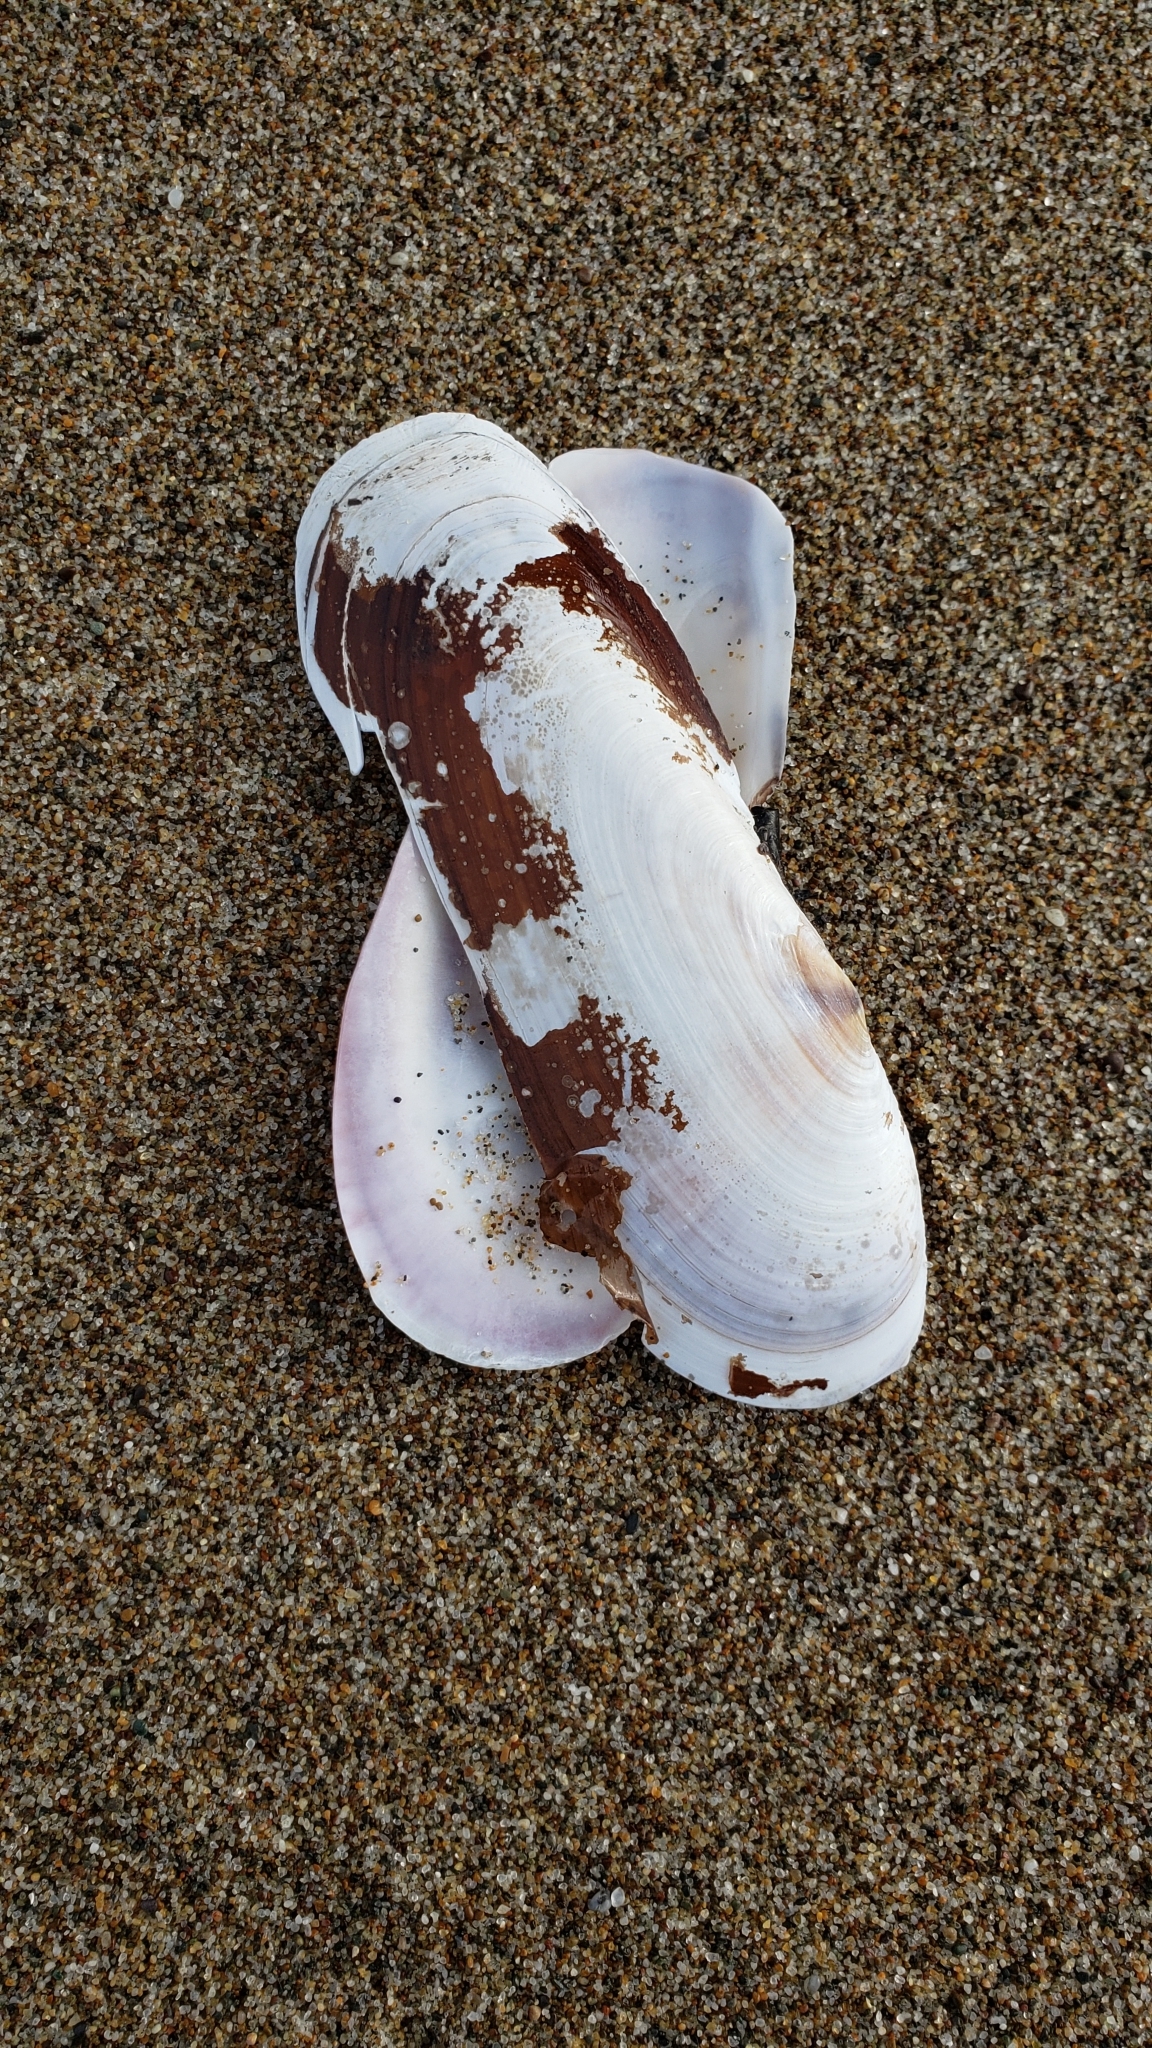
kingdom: Animalia
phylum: Mollusca
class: Bivalvia
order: Adapedonta
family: Pharidae
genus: Siliqua
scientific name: Siliqua patula
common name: Pacific razor clam
